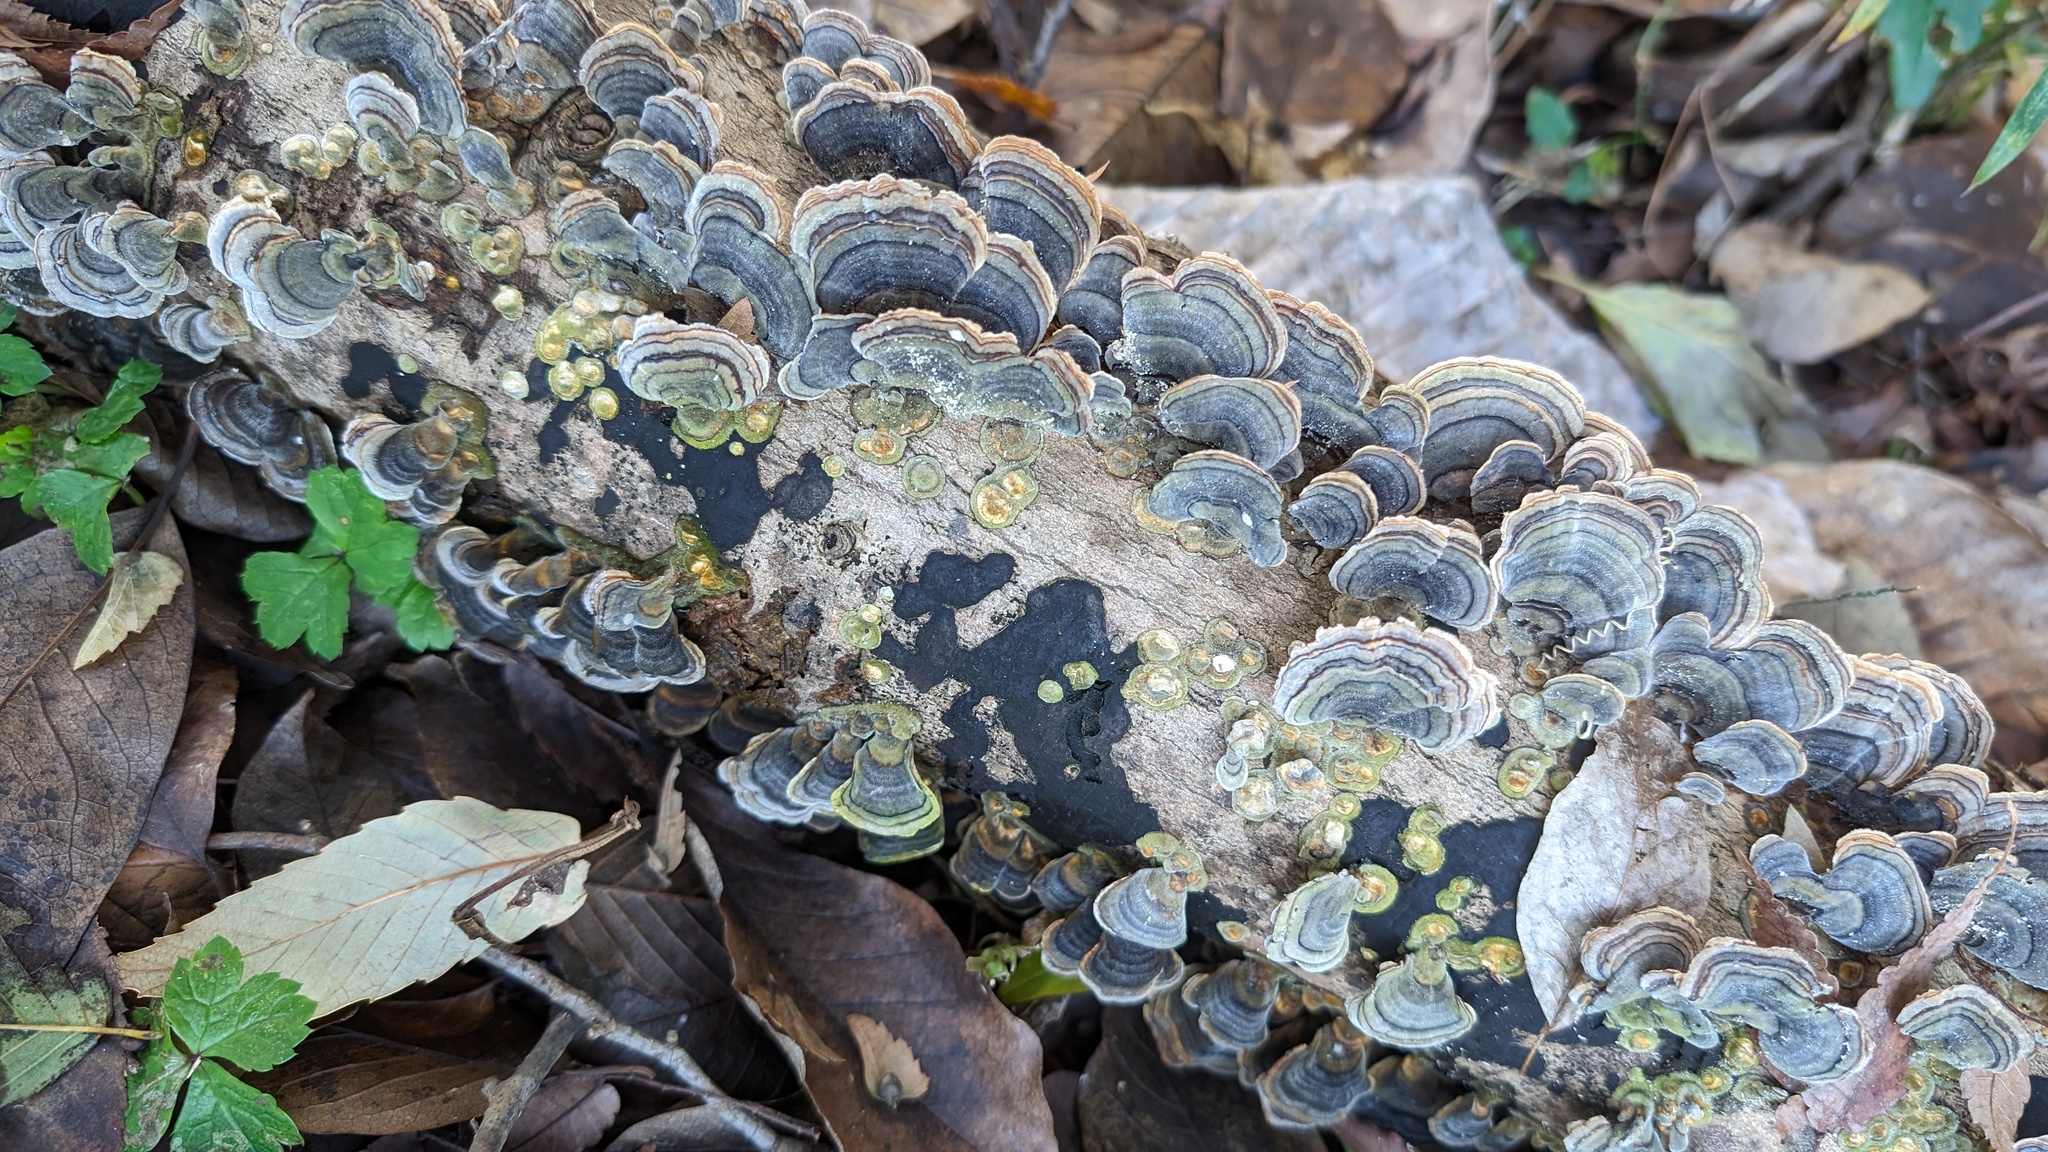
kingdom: Fungi
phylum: Basidiomycota
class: Agaricomycetes
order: Polyporales
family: Polyporaceae
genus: Trametes
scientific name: Trametes versicolor
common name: Turkeytail
